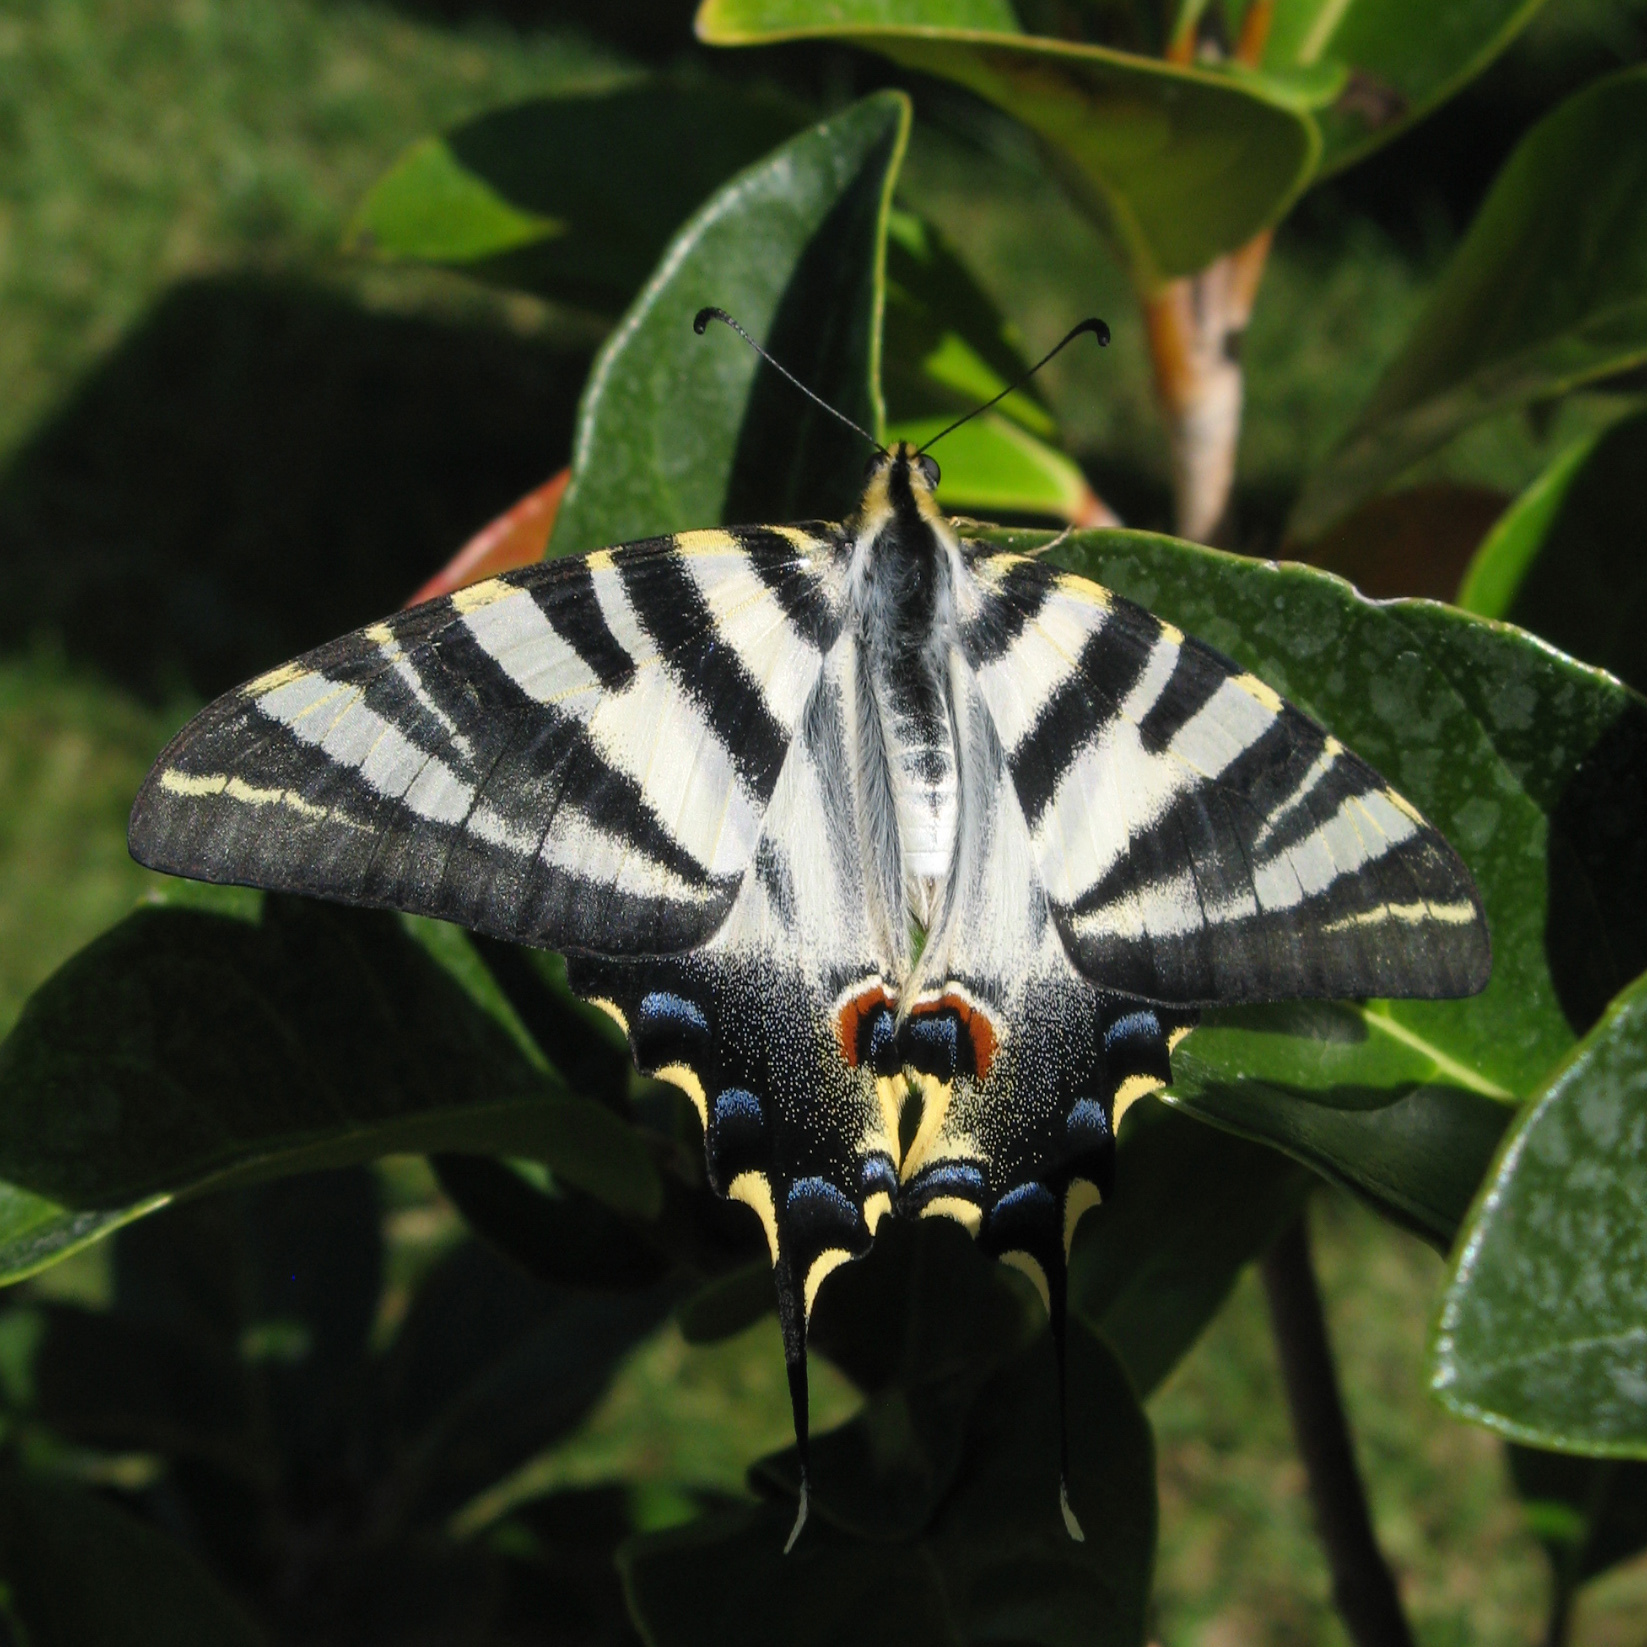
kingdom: Animalia
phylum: Arthropoda
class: Insecta
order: Lepidoptera
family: Papilionidae
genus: Iphiclides
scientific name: Iphiclides feisthamelii
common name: Iberian scarce swallowtail
